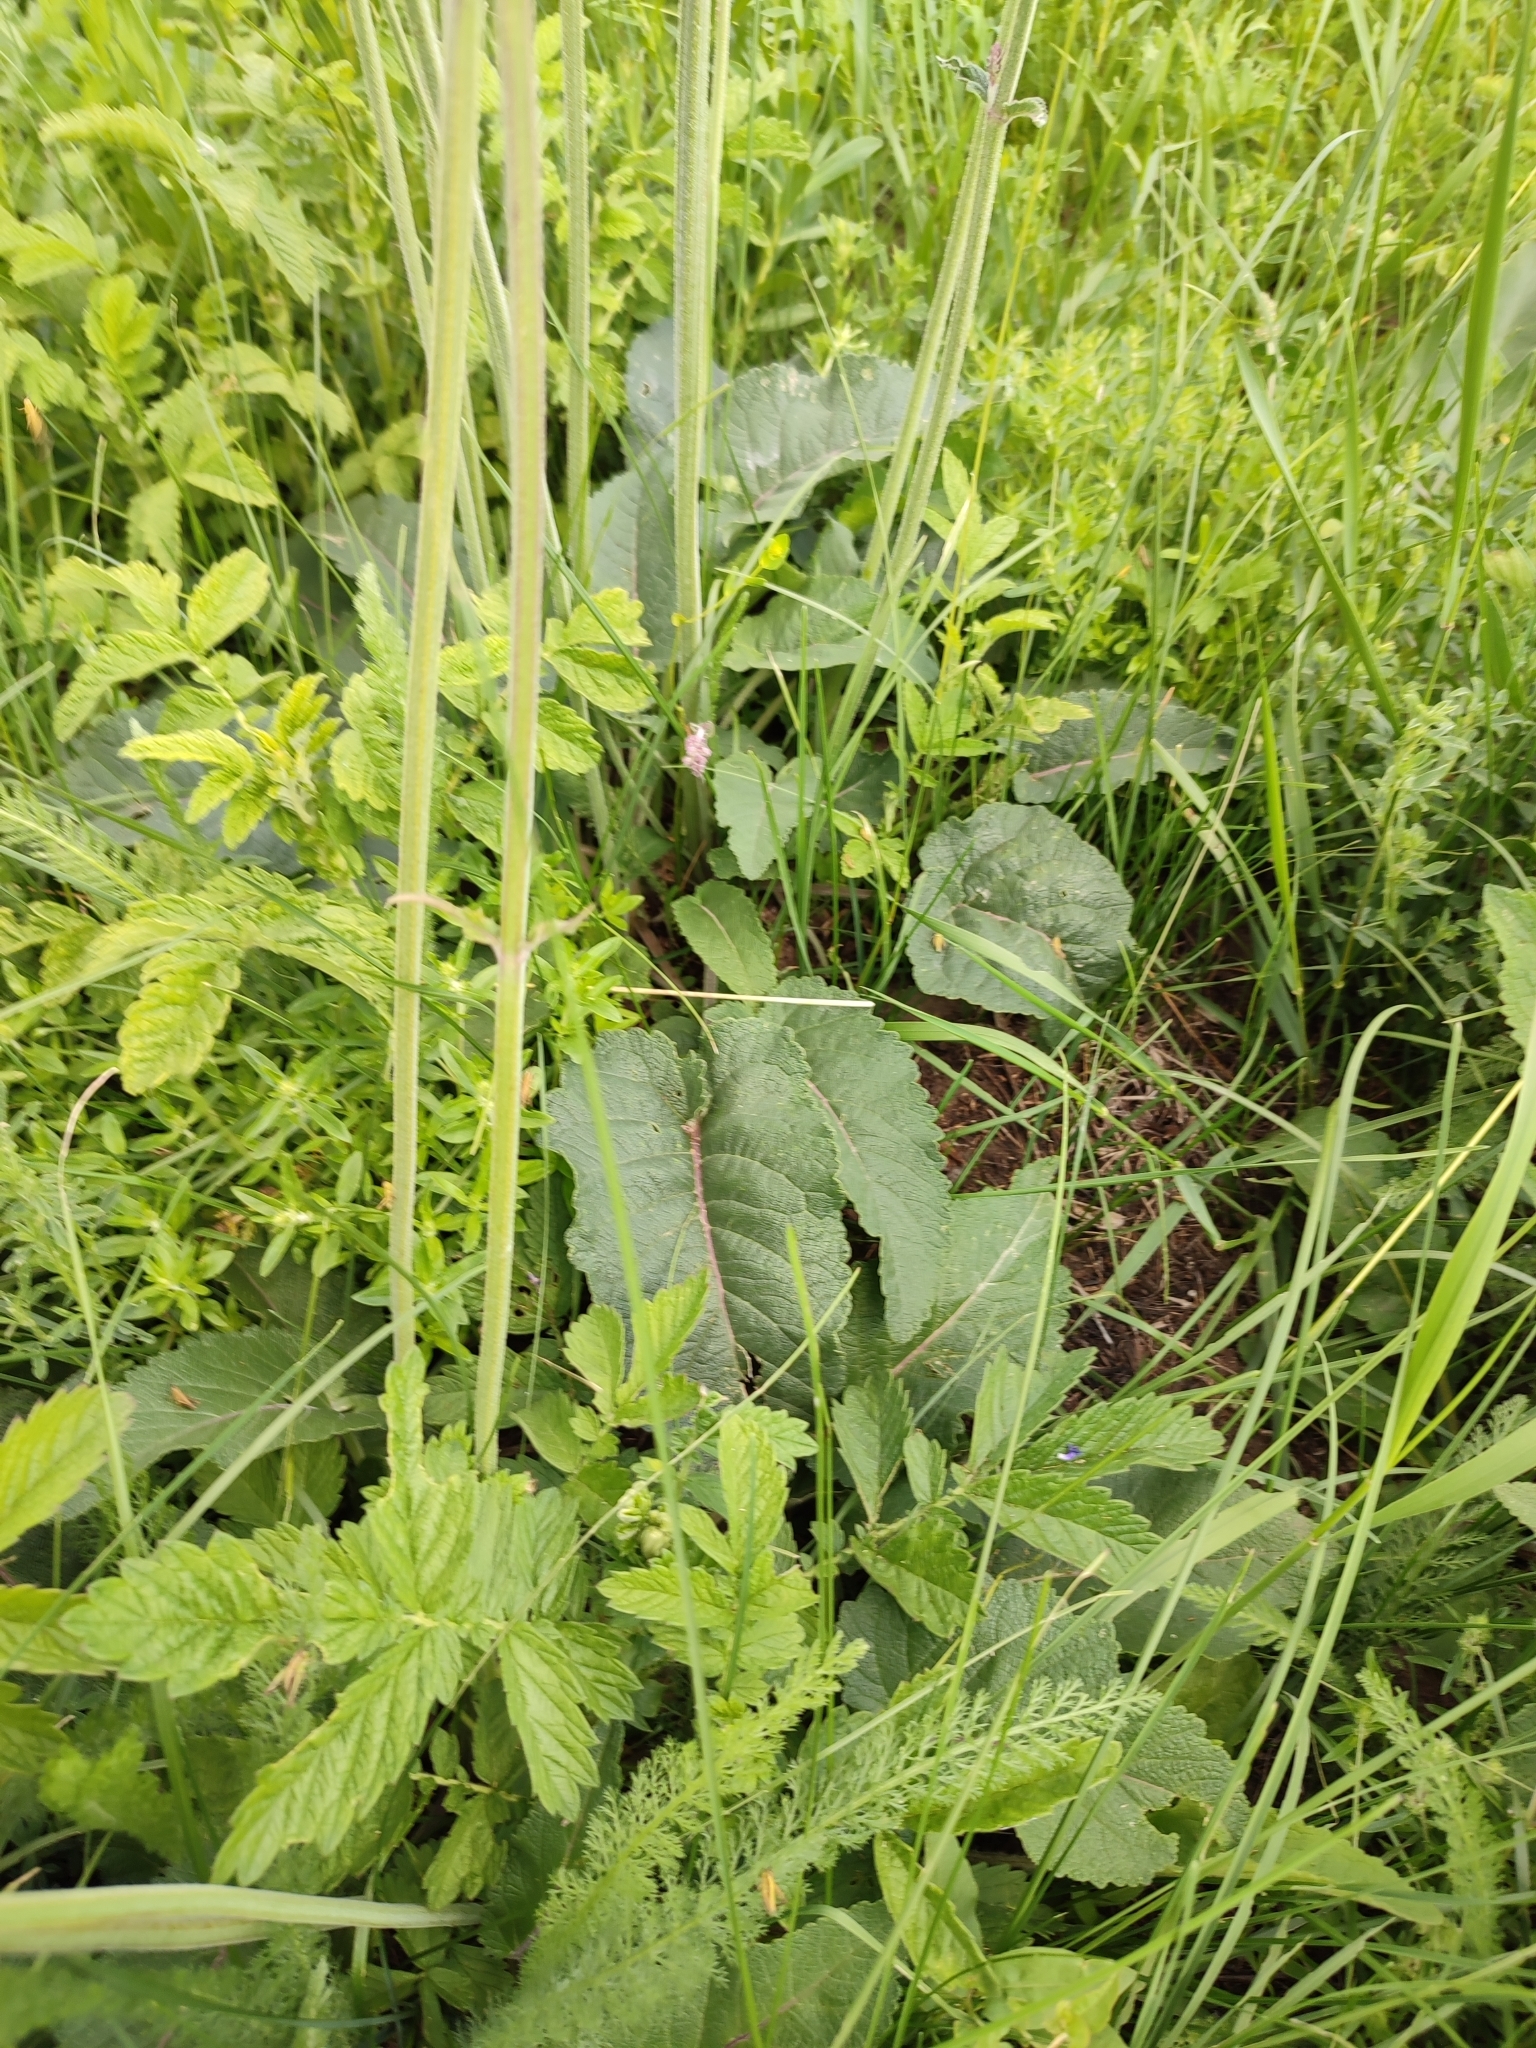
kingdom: Plantae
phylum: Tracheophyta
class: Magnoliopsida
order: Lamiales
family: Lamiaceae
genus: Salvia
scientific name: Salvia nutans
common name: Nodding sage
